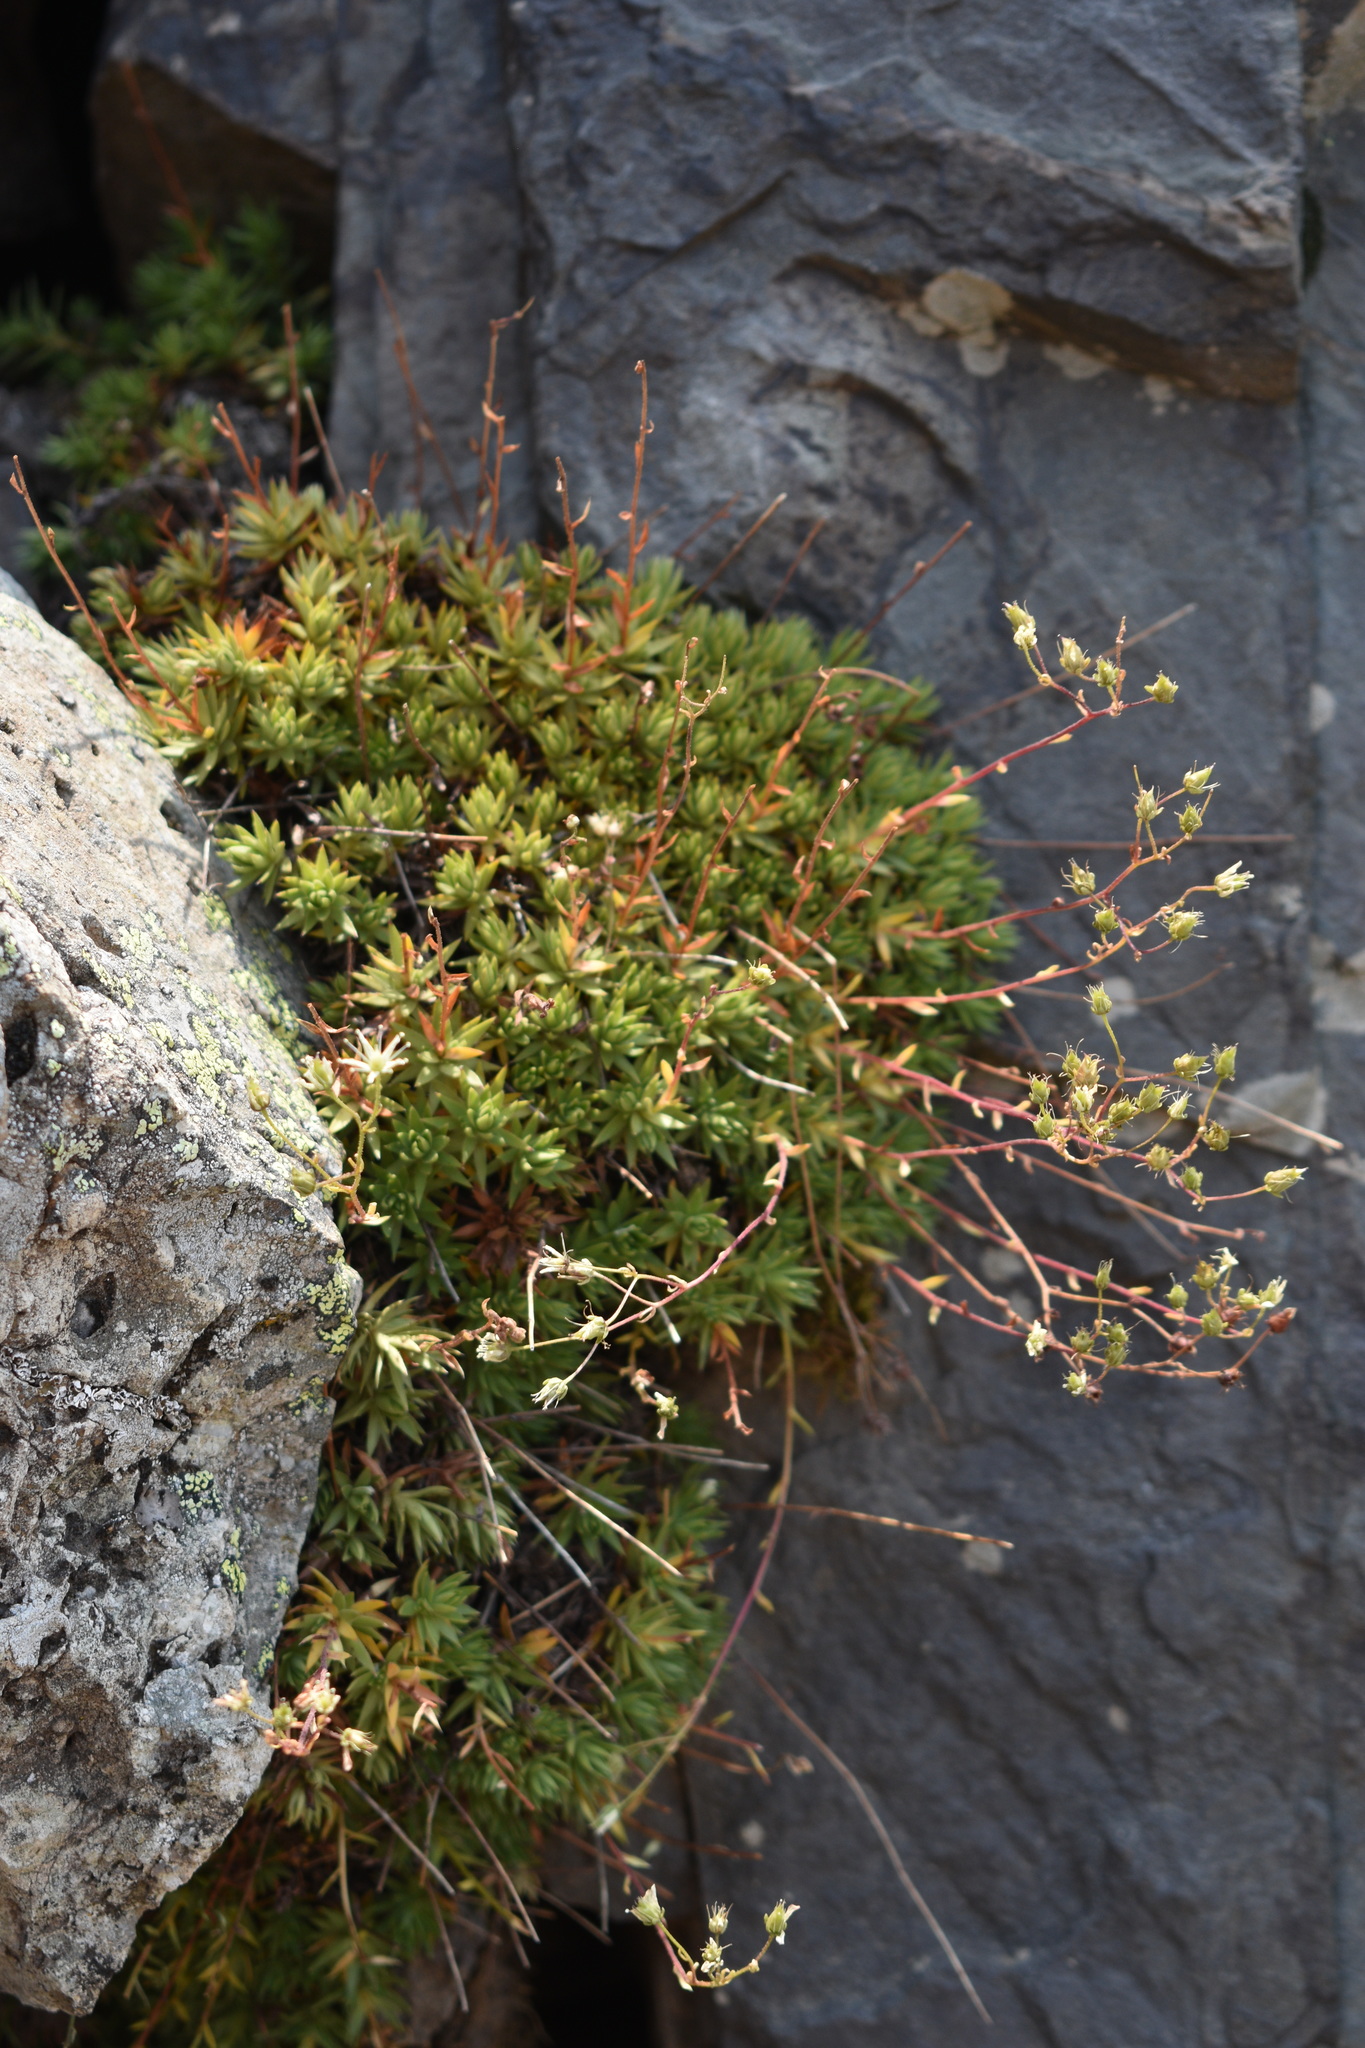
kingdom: Plantae
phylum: Tracheophyta
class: Magnoliopsida
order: Saxifragales
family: Saxifragaceae
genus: Saxifraga
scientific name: Saxifraga bronchialis
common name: Matted saxifrage
